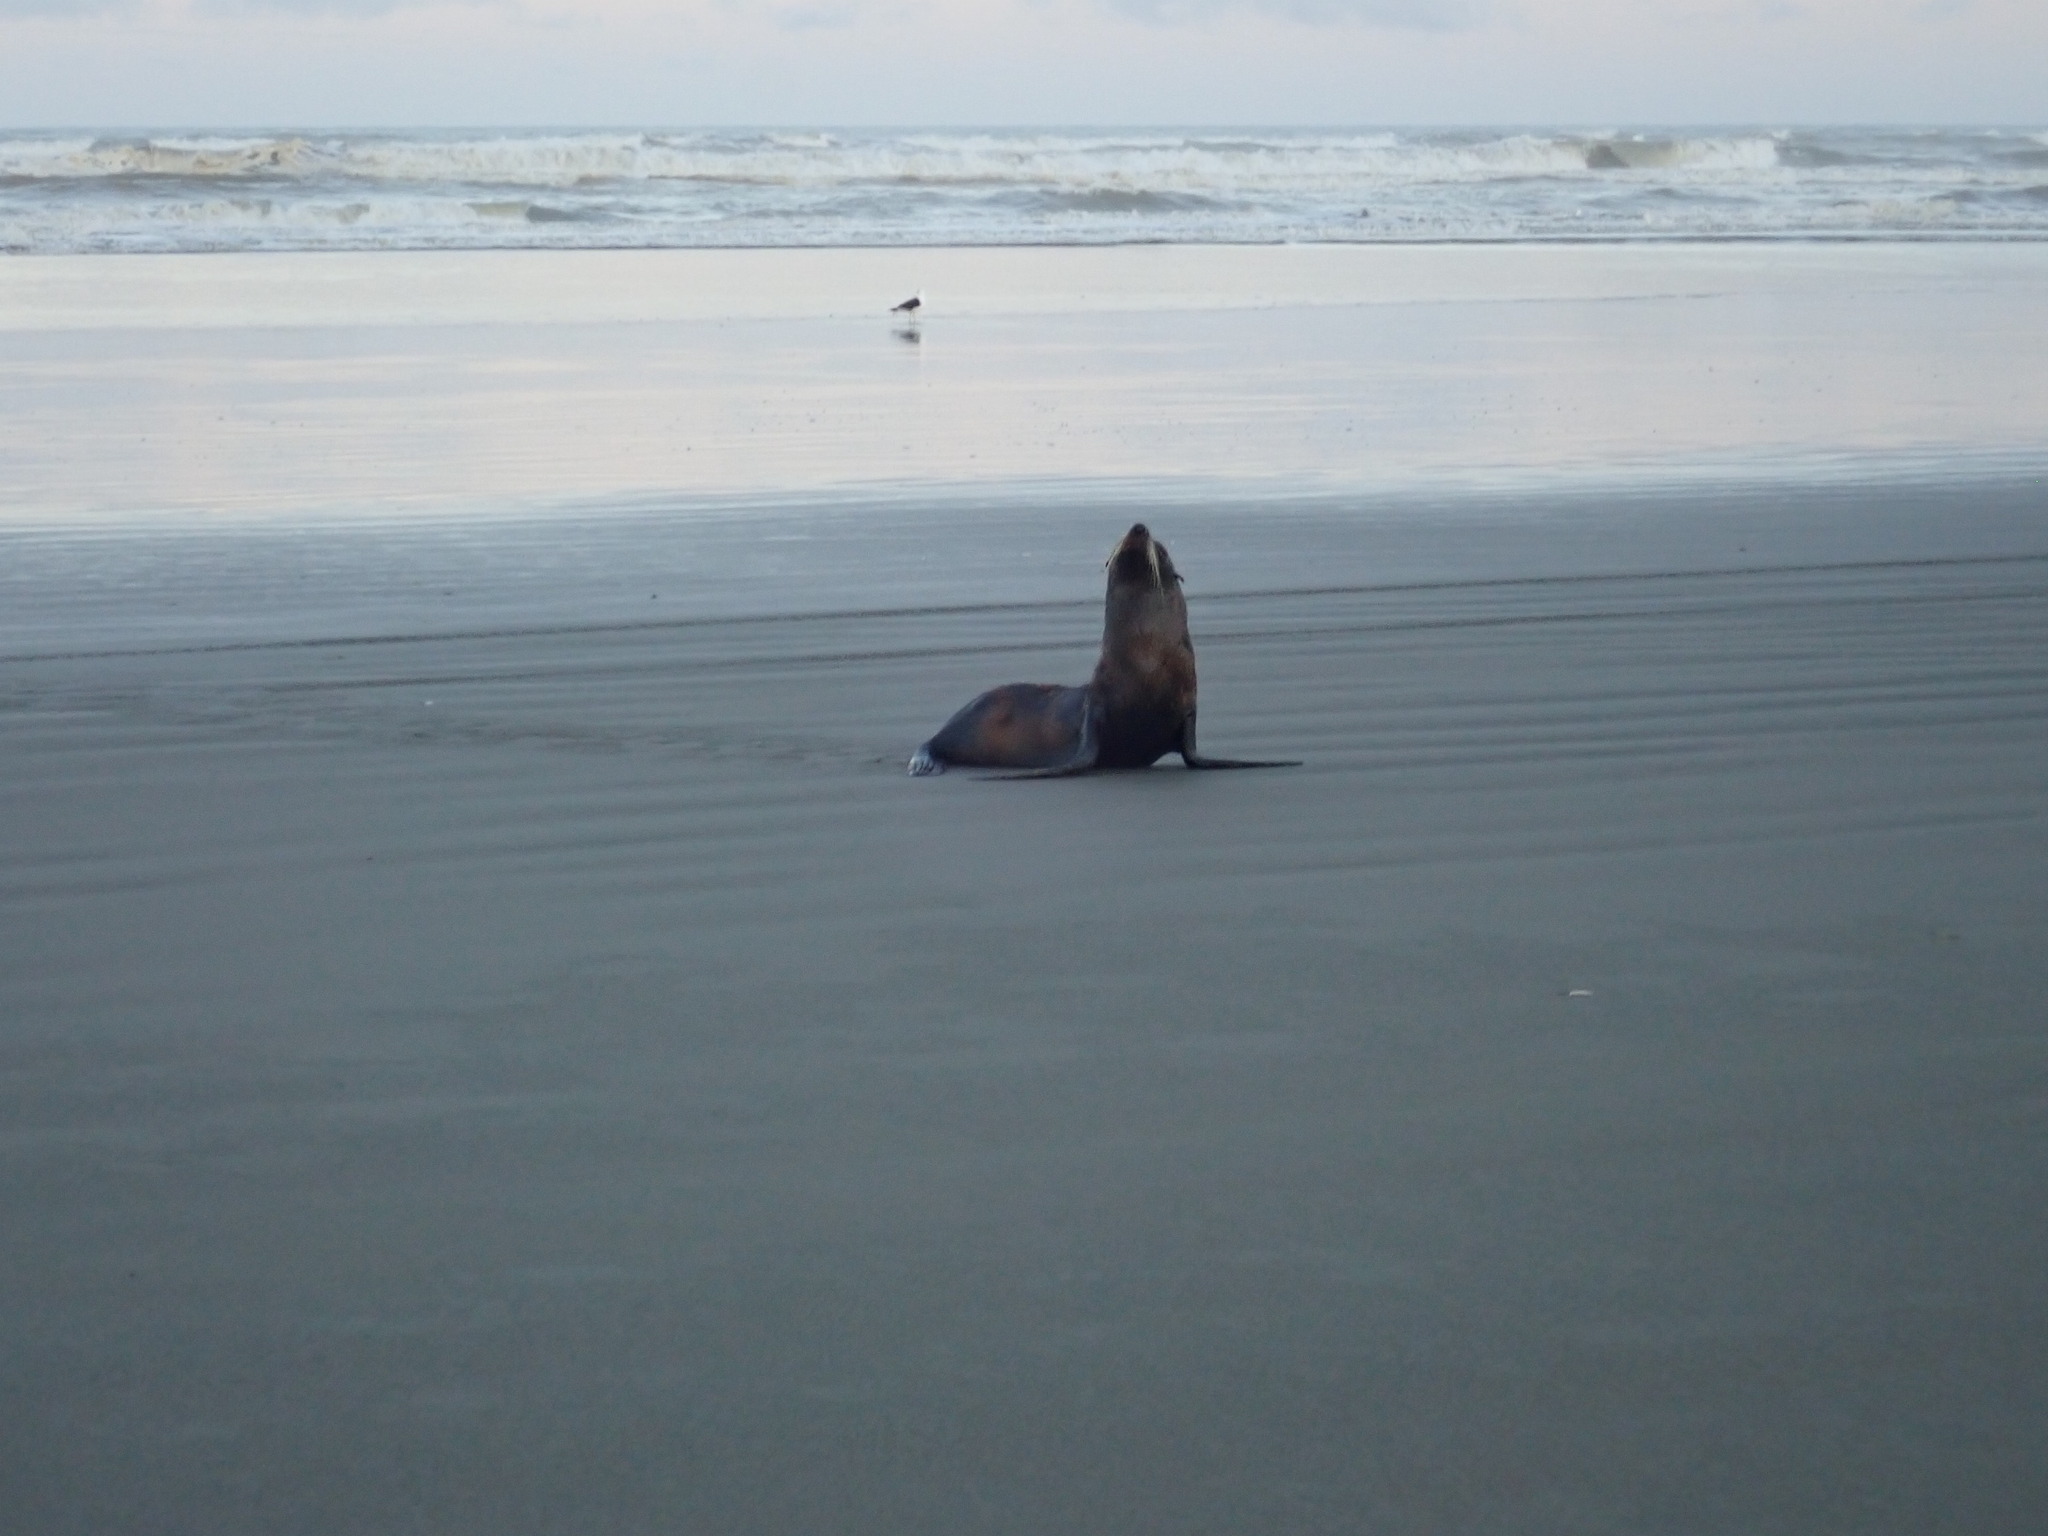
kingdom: Animalia
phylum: Chordata
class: Mammalia
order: Carnivora
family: Otariidae
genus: Arctocephalus
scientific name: Arctocephalus forsteri
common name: New zealand fur seal
